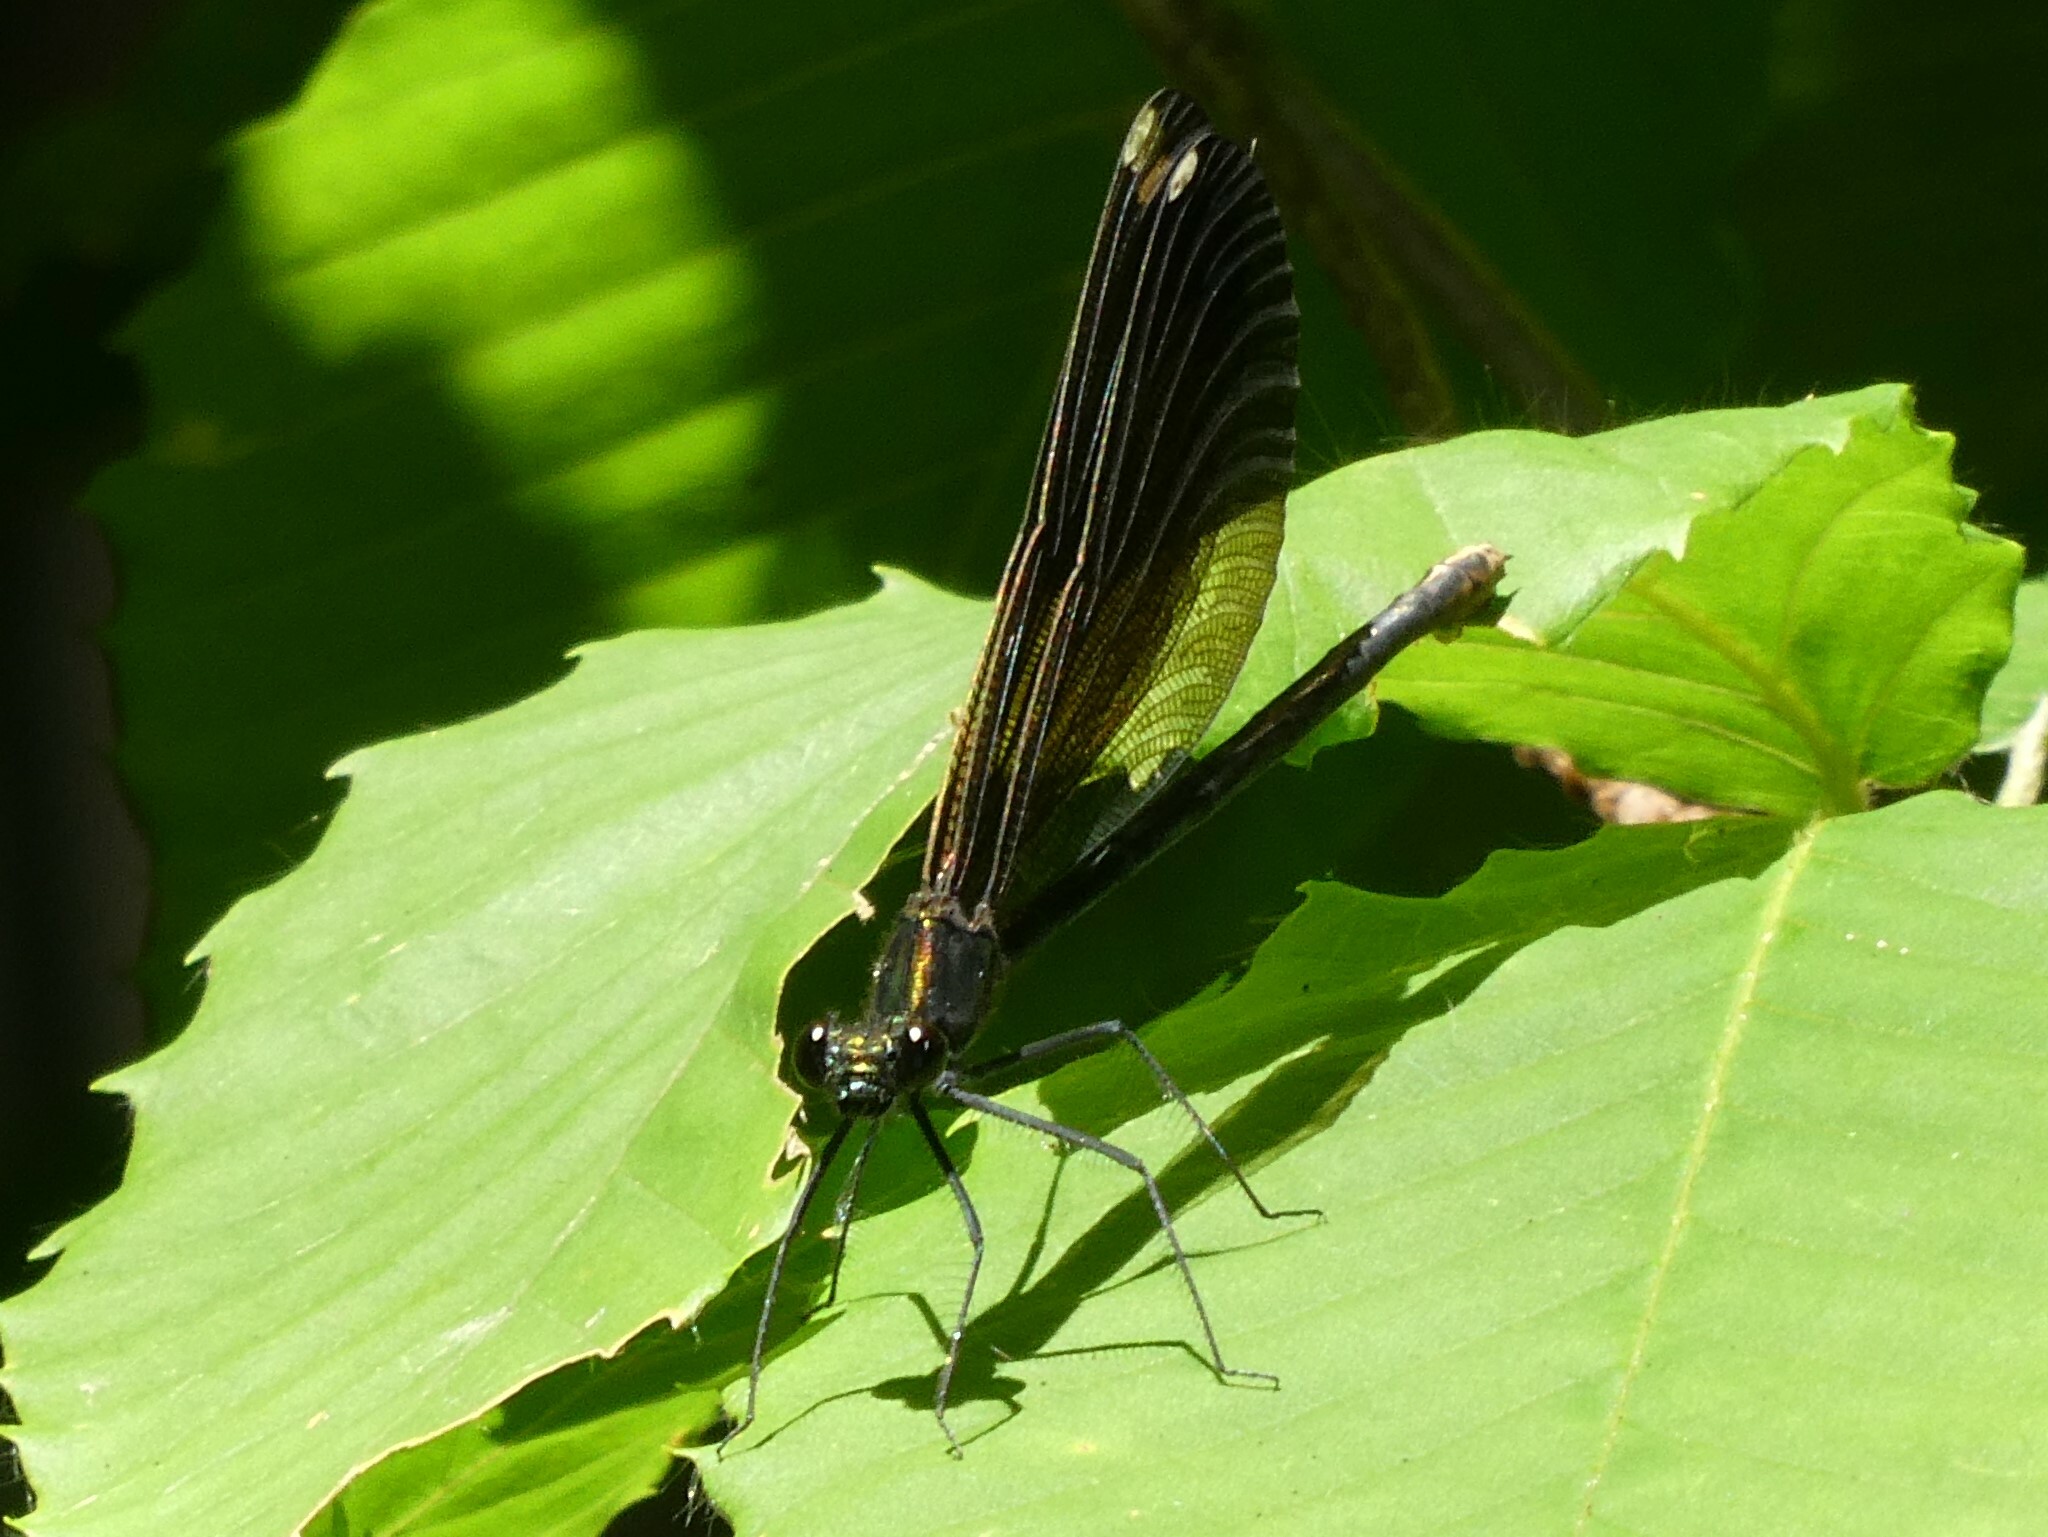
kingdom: Animalia
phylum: Arthropoda
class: Insecta
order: Odonata
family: Calopterygidae
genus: Calopteryx
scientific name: Calopteryx maculata
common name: Ebony jewelwing
